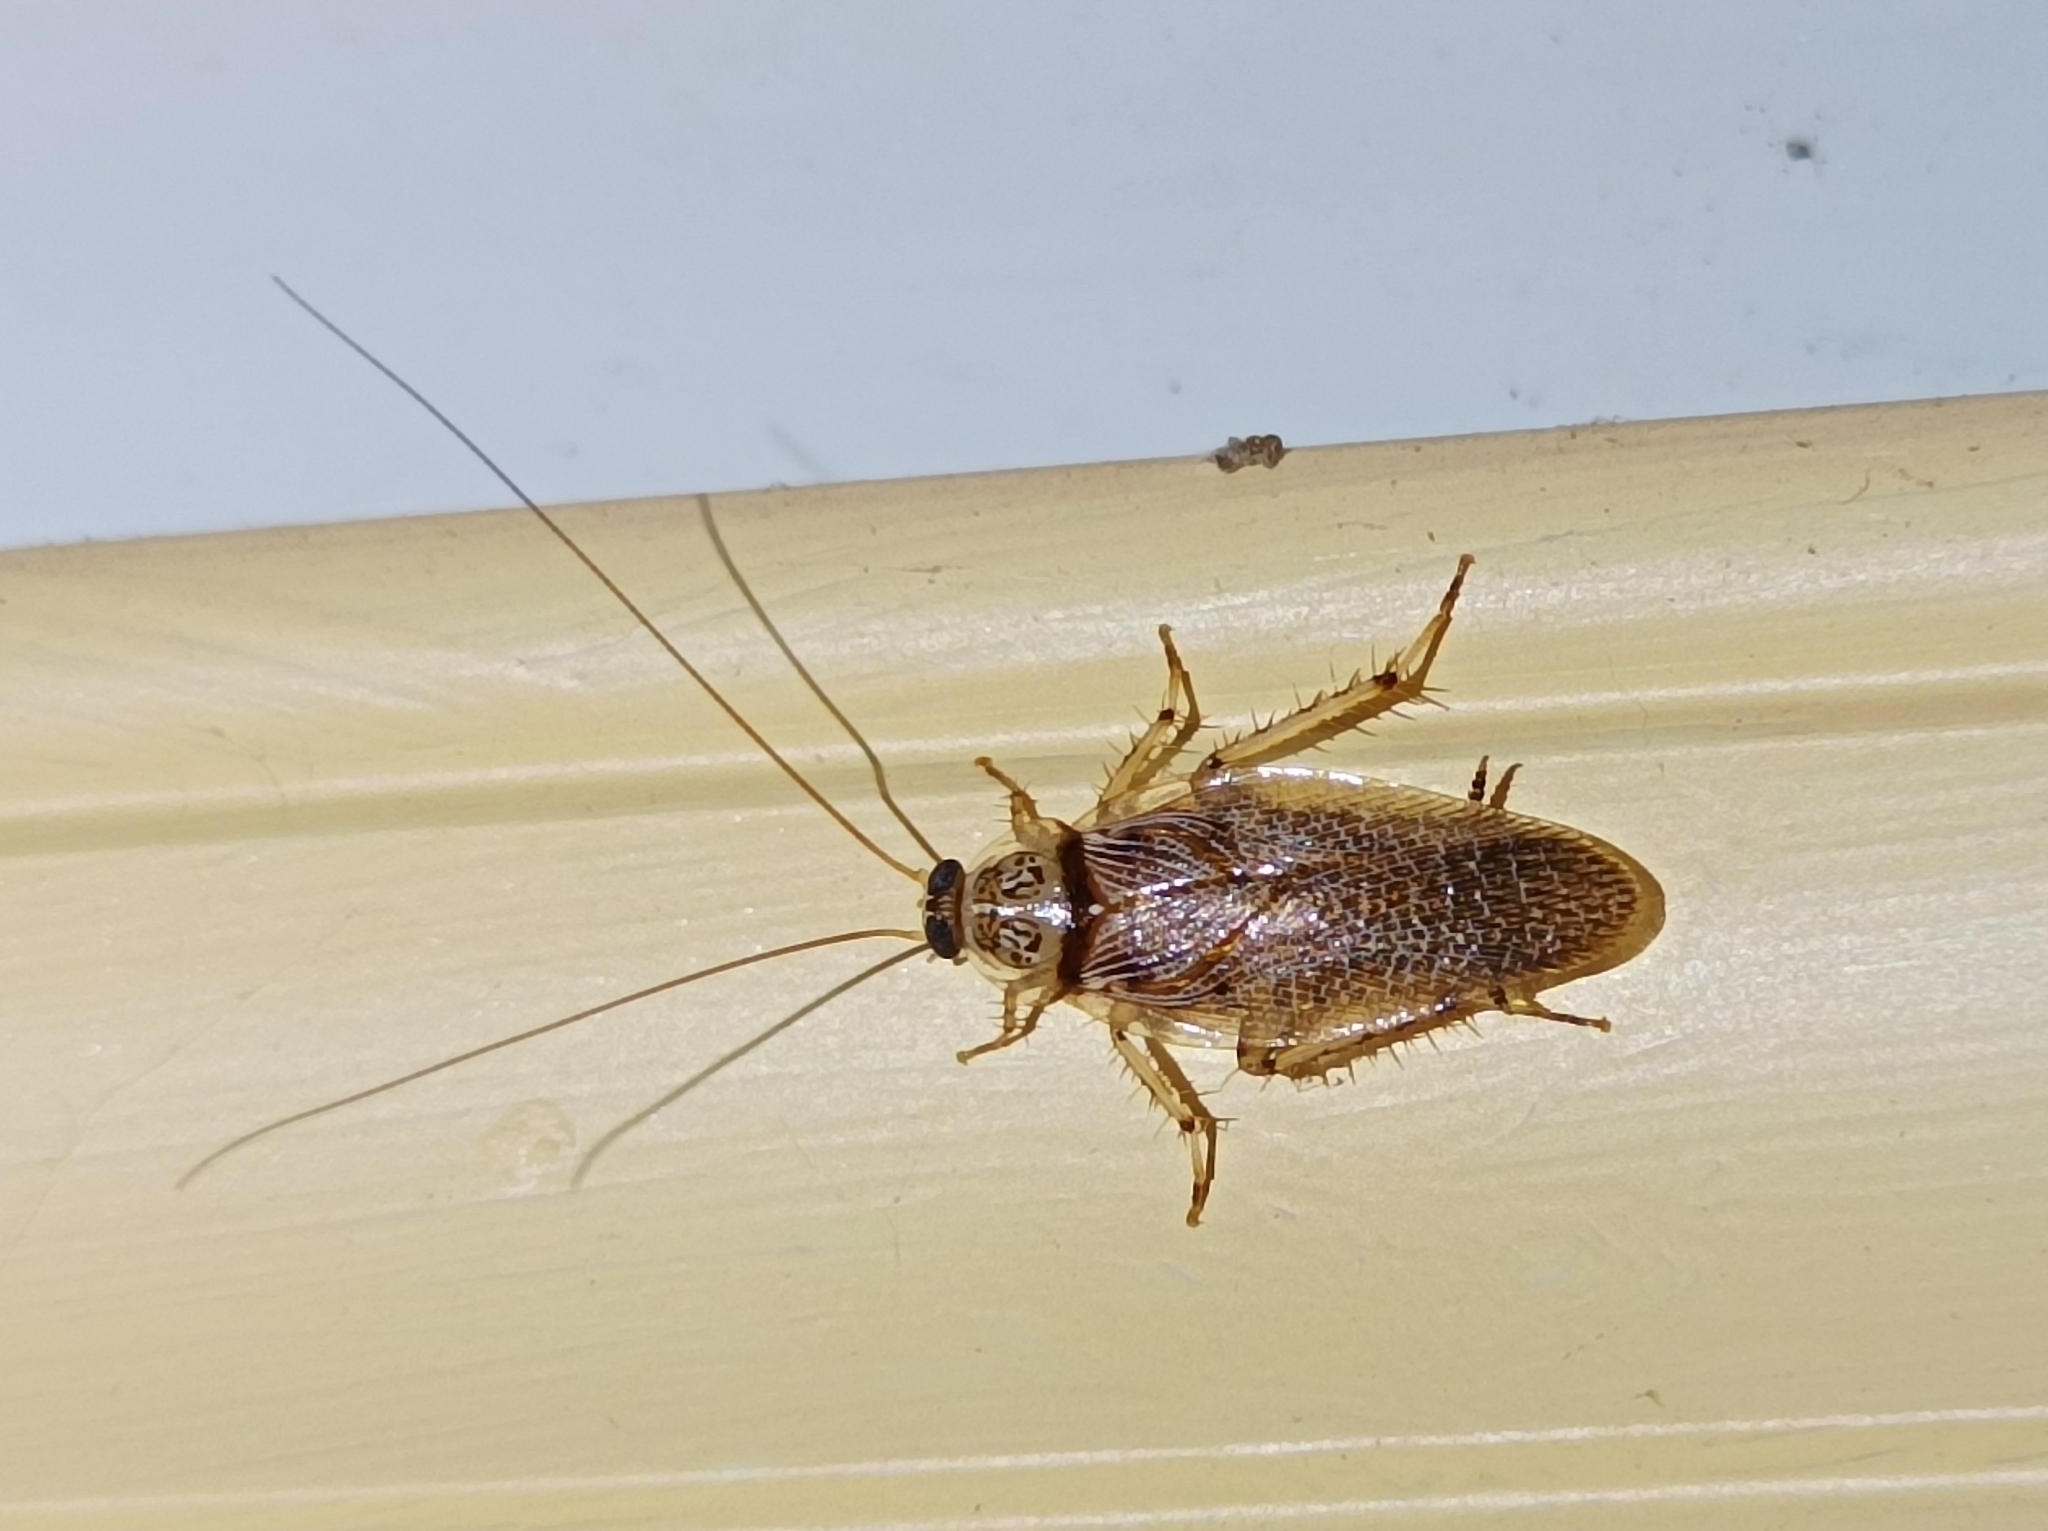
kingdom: Animalia
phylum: Arthropoda
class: Insecta
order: Blattodea
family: Ectobiidae
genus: Balta
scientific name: Balta notulata
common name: Cockroach
